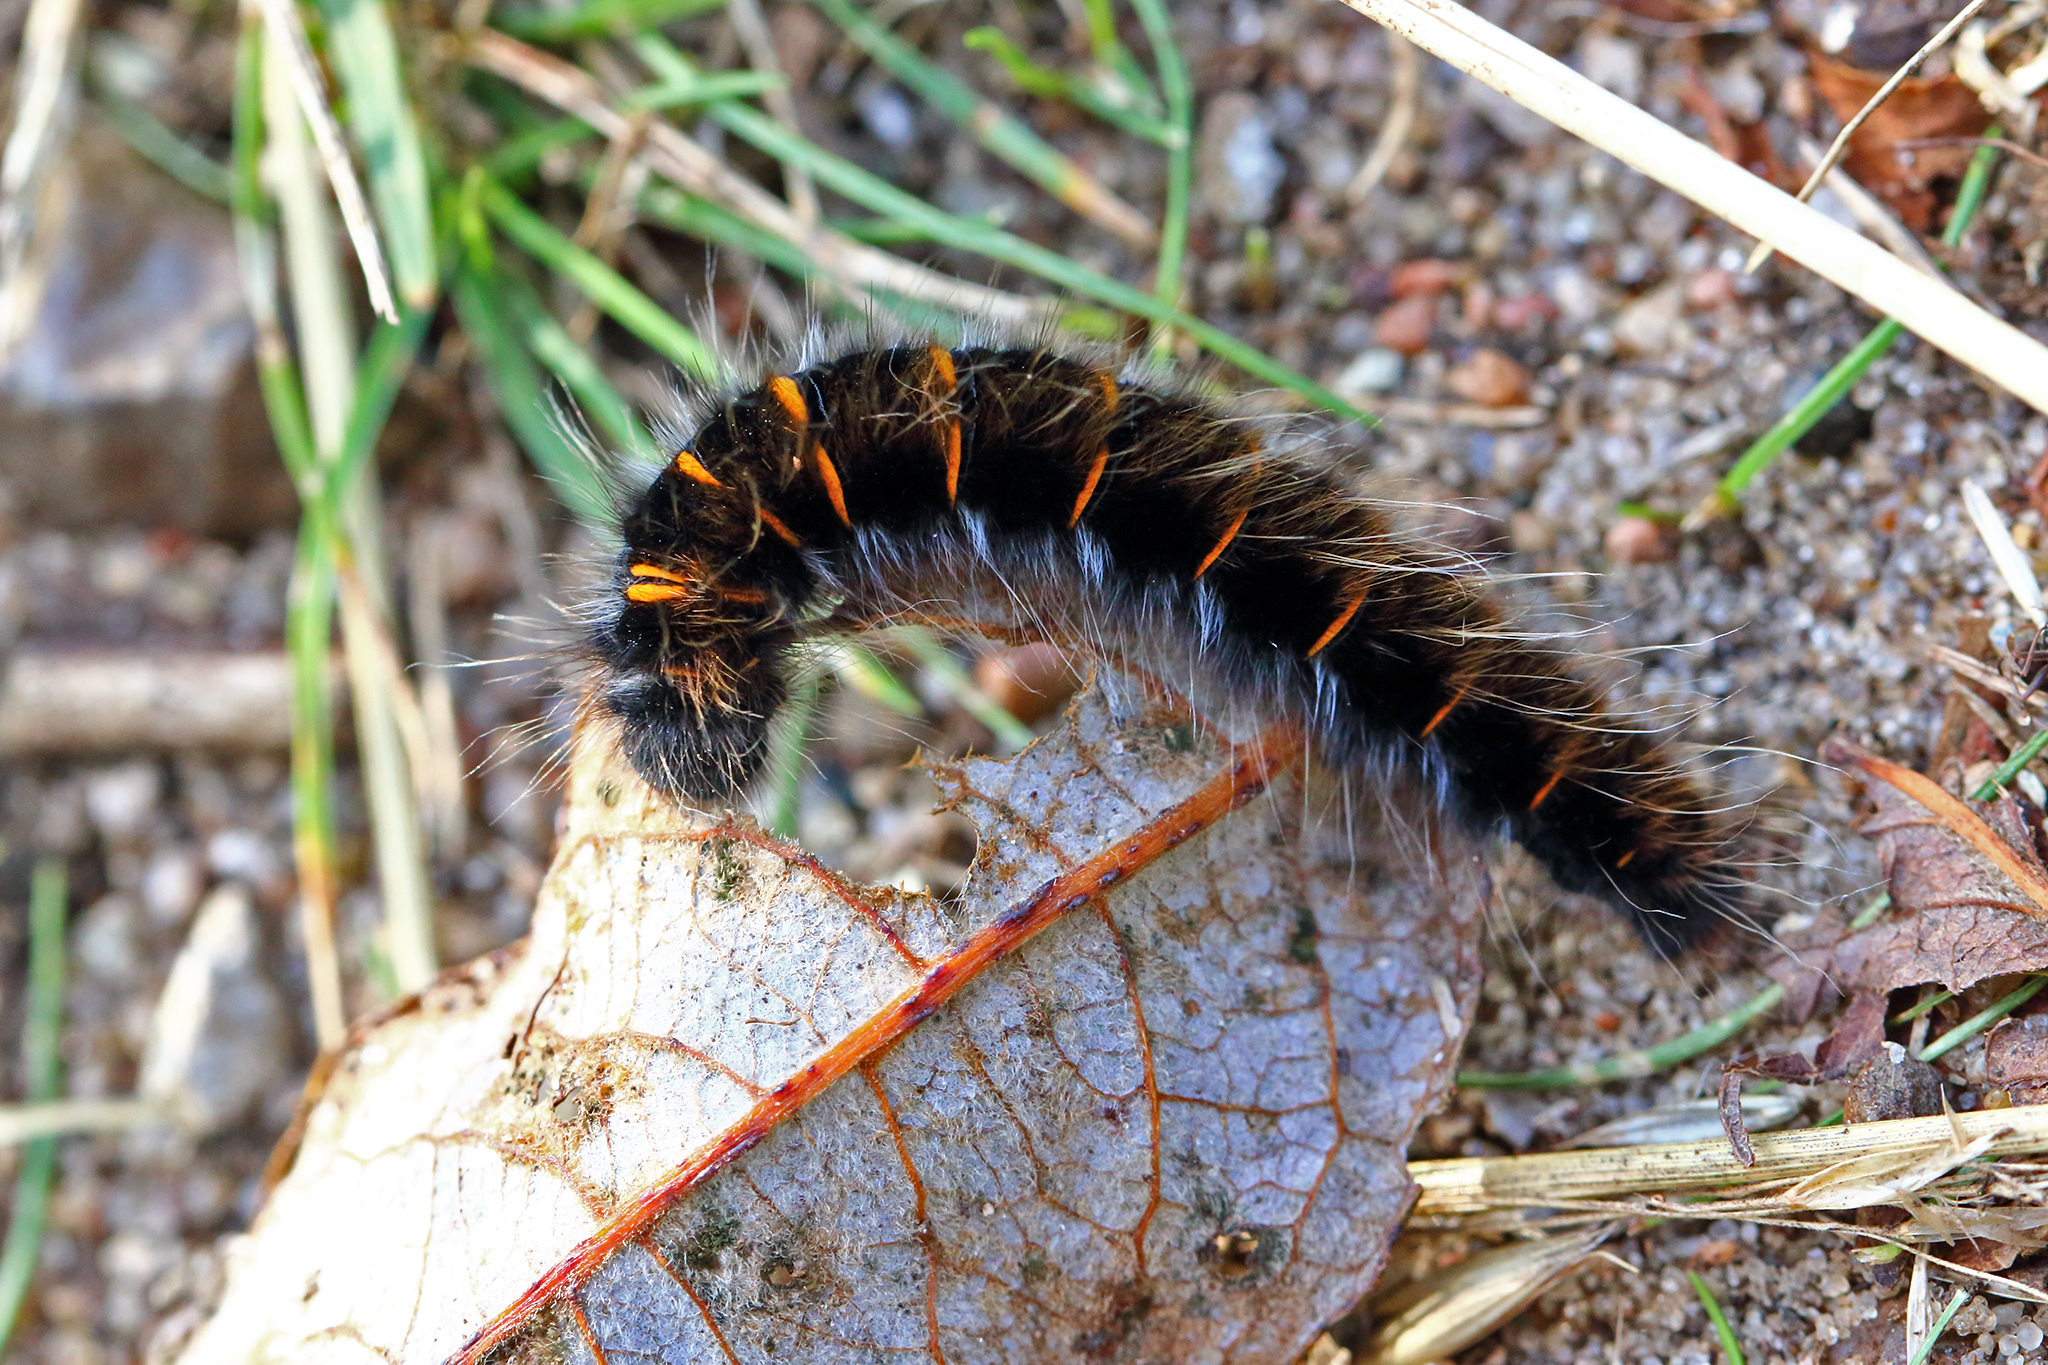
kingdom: Animalia
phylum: Arthropoda
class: Insecta
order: Lepidoptera
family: Lasiocampidae
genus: Macrothylacia
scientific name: Macrothylacia rubi
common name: Fox moth
